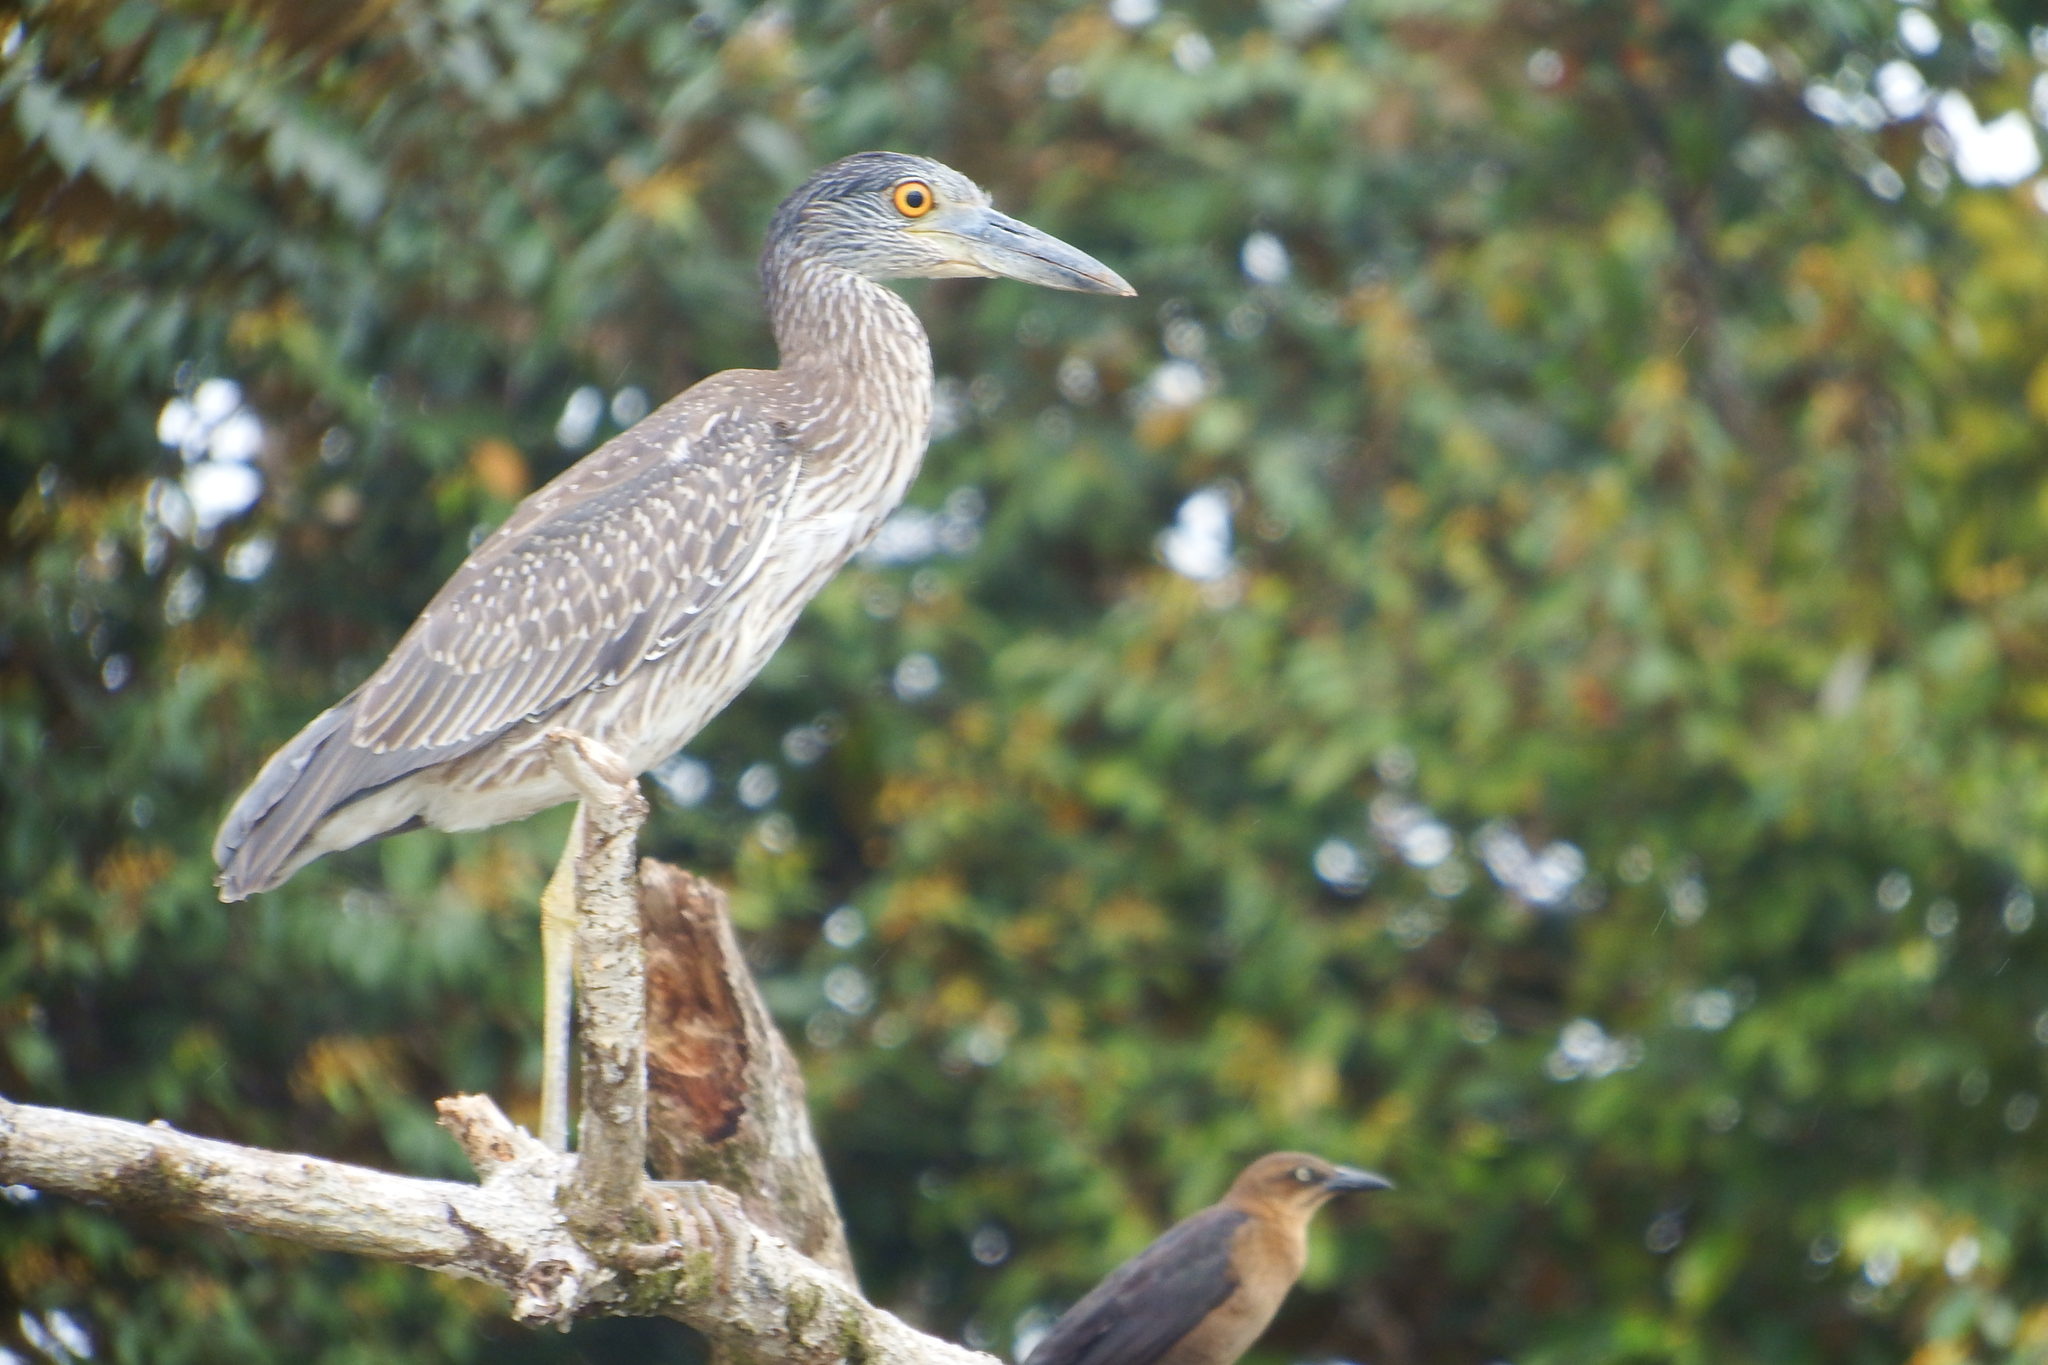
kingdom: Animalia
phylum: Chordata
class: Aves
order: Pelecaniformes
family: Ardeidae
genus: Nyctanassa
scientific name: Nyctanassa violacea
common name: Yellow-crowned night heron
